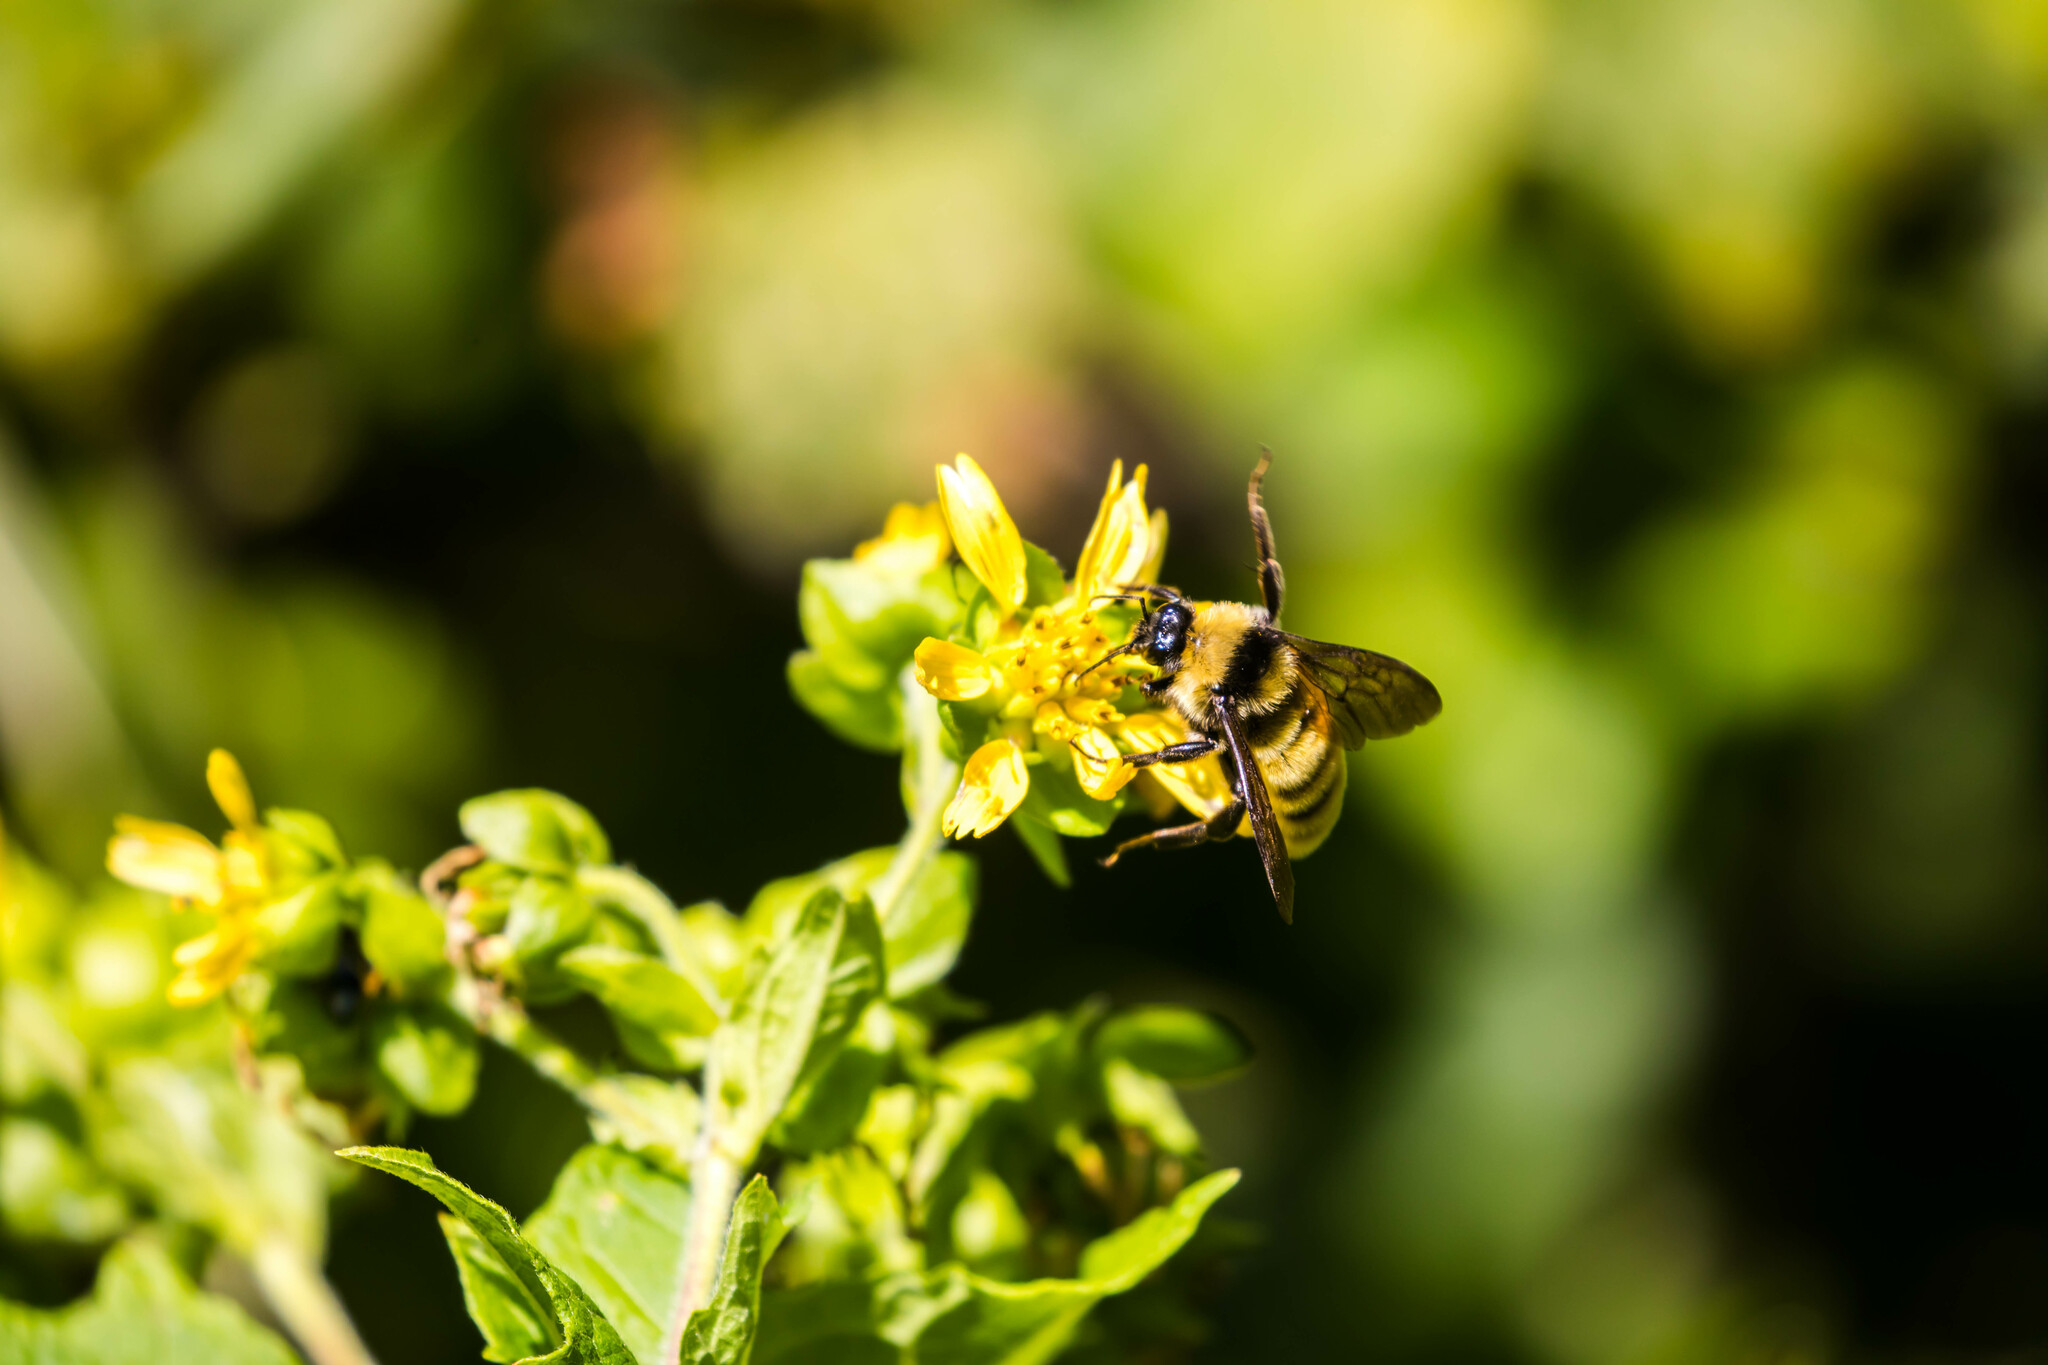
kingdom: Animalia
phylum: Arthropoda
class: Insecta
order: Hymenoptera
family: Apidae
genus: Bombus
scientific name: Bombus pensylvanicus
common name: Bumble bee
